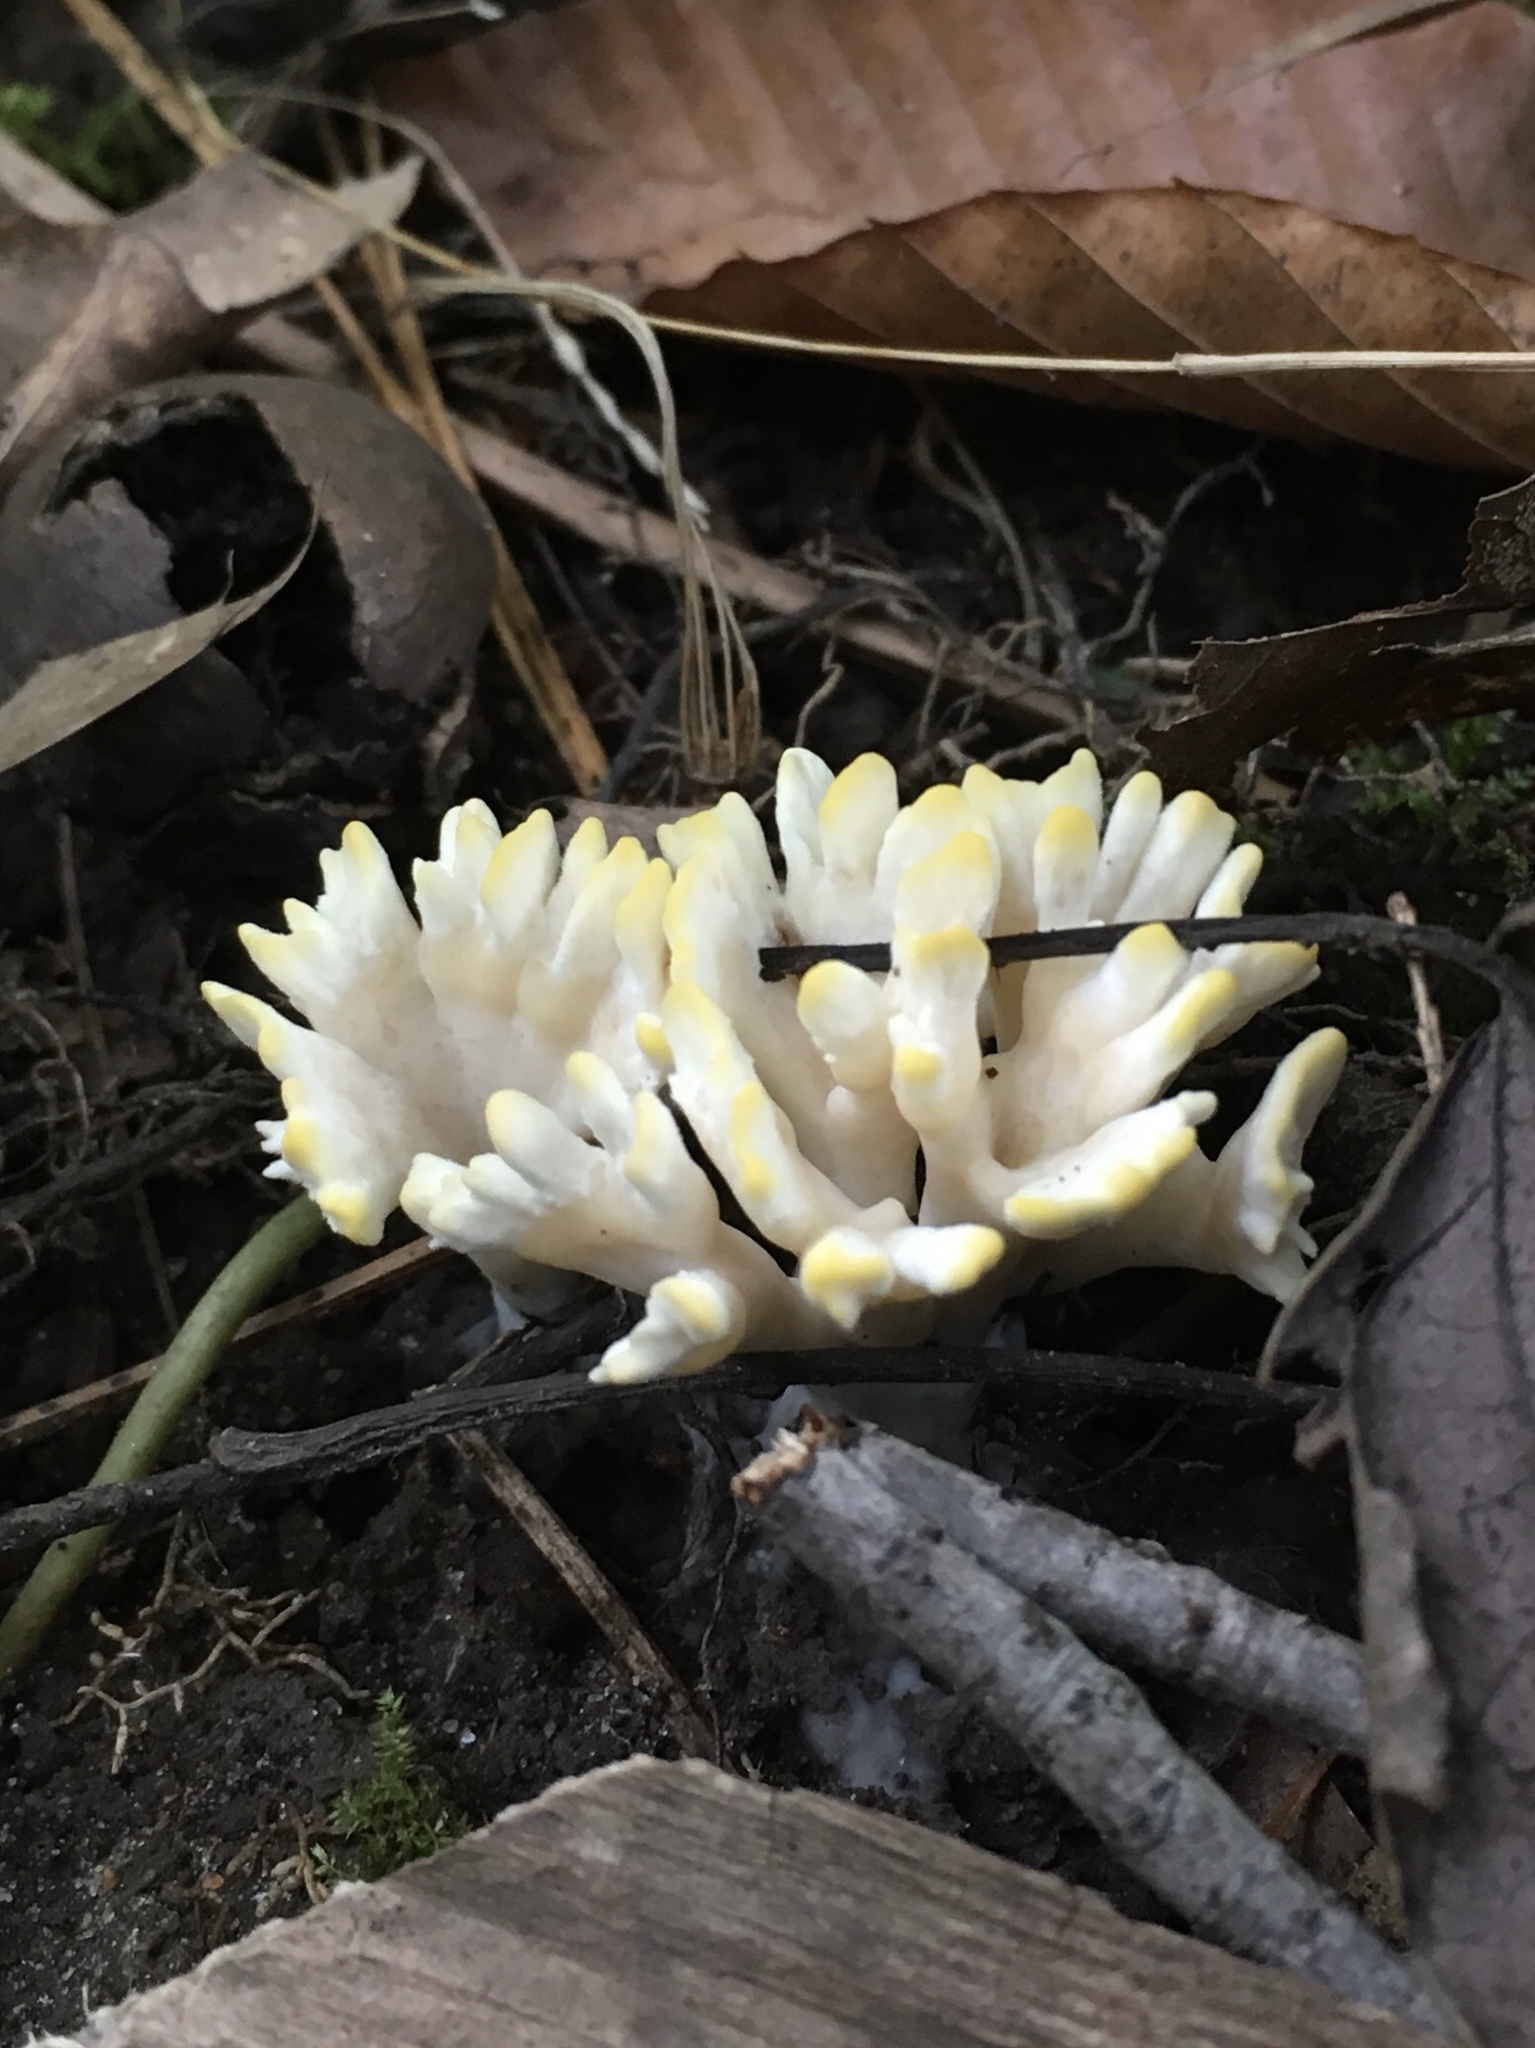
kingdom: Fungi
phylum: Basidiomycota
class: Agaricomycetes
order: Sebacinales
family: Sebacinaceae
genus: Sebacina
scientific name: Sebacina schweinitzii
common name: Jellied false coral fungus
